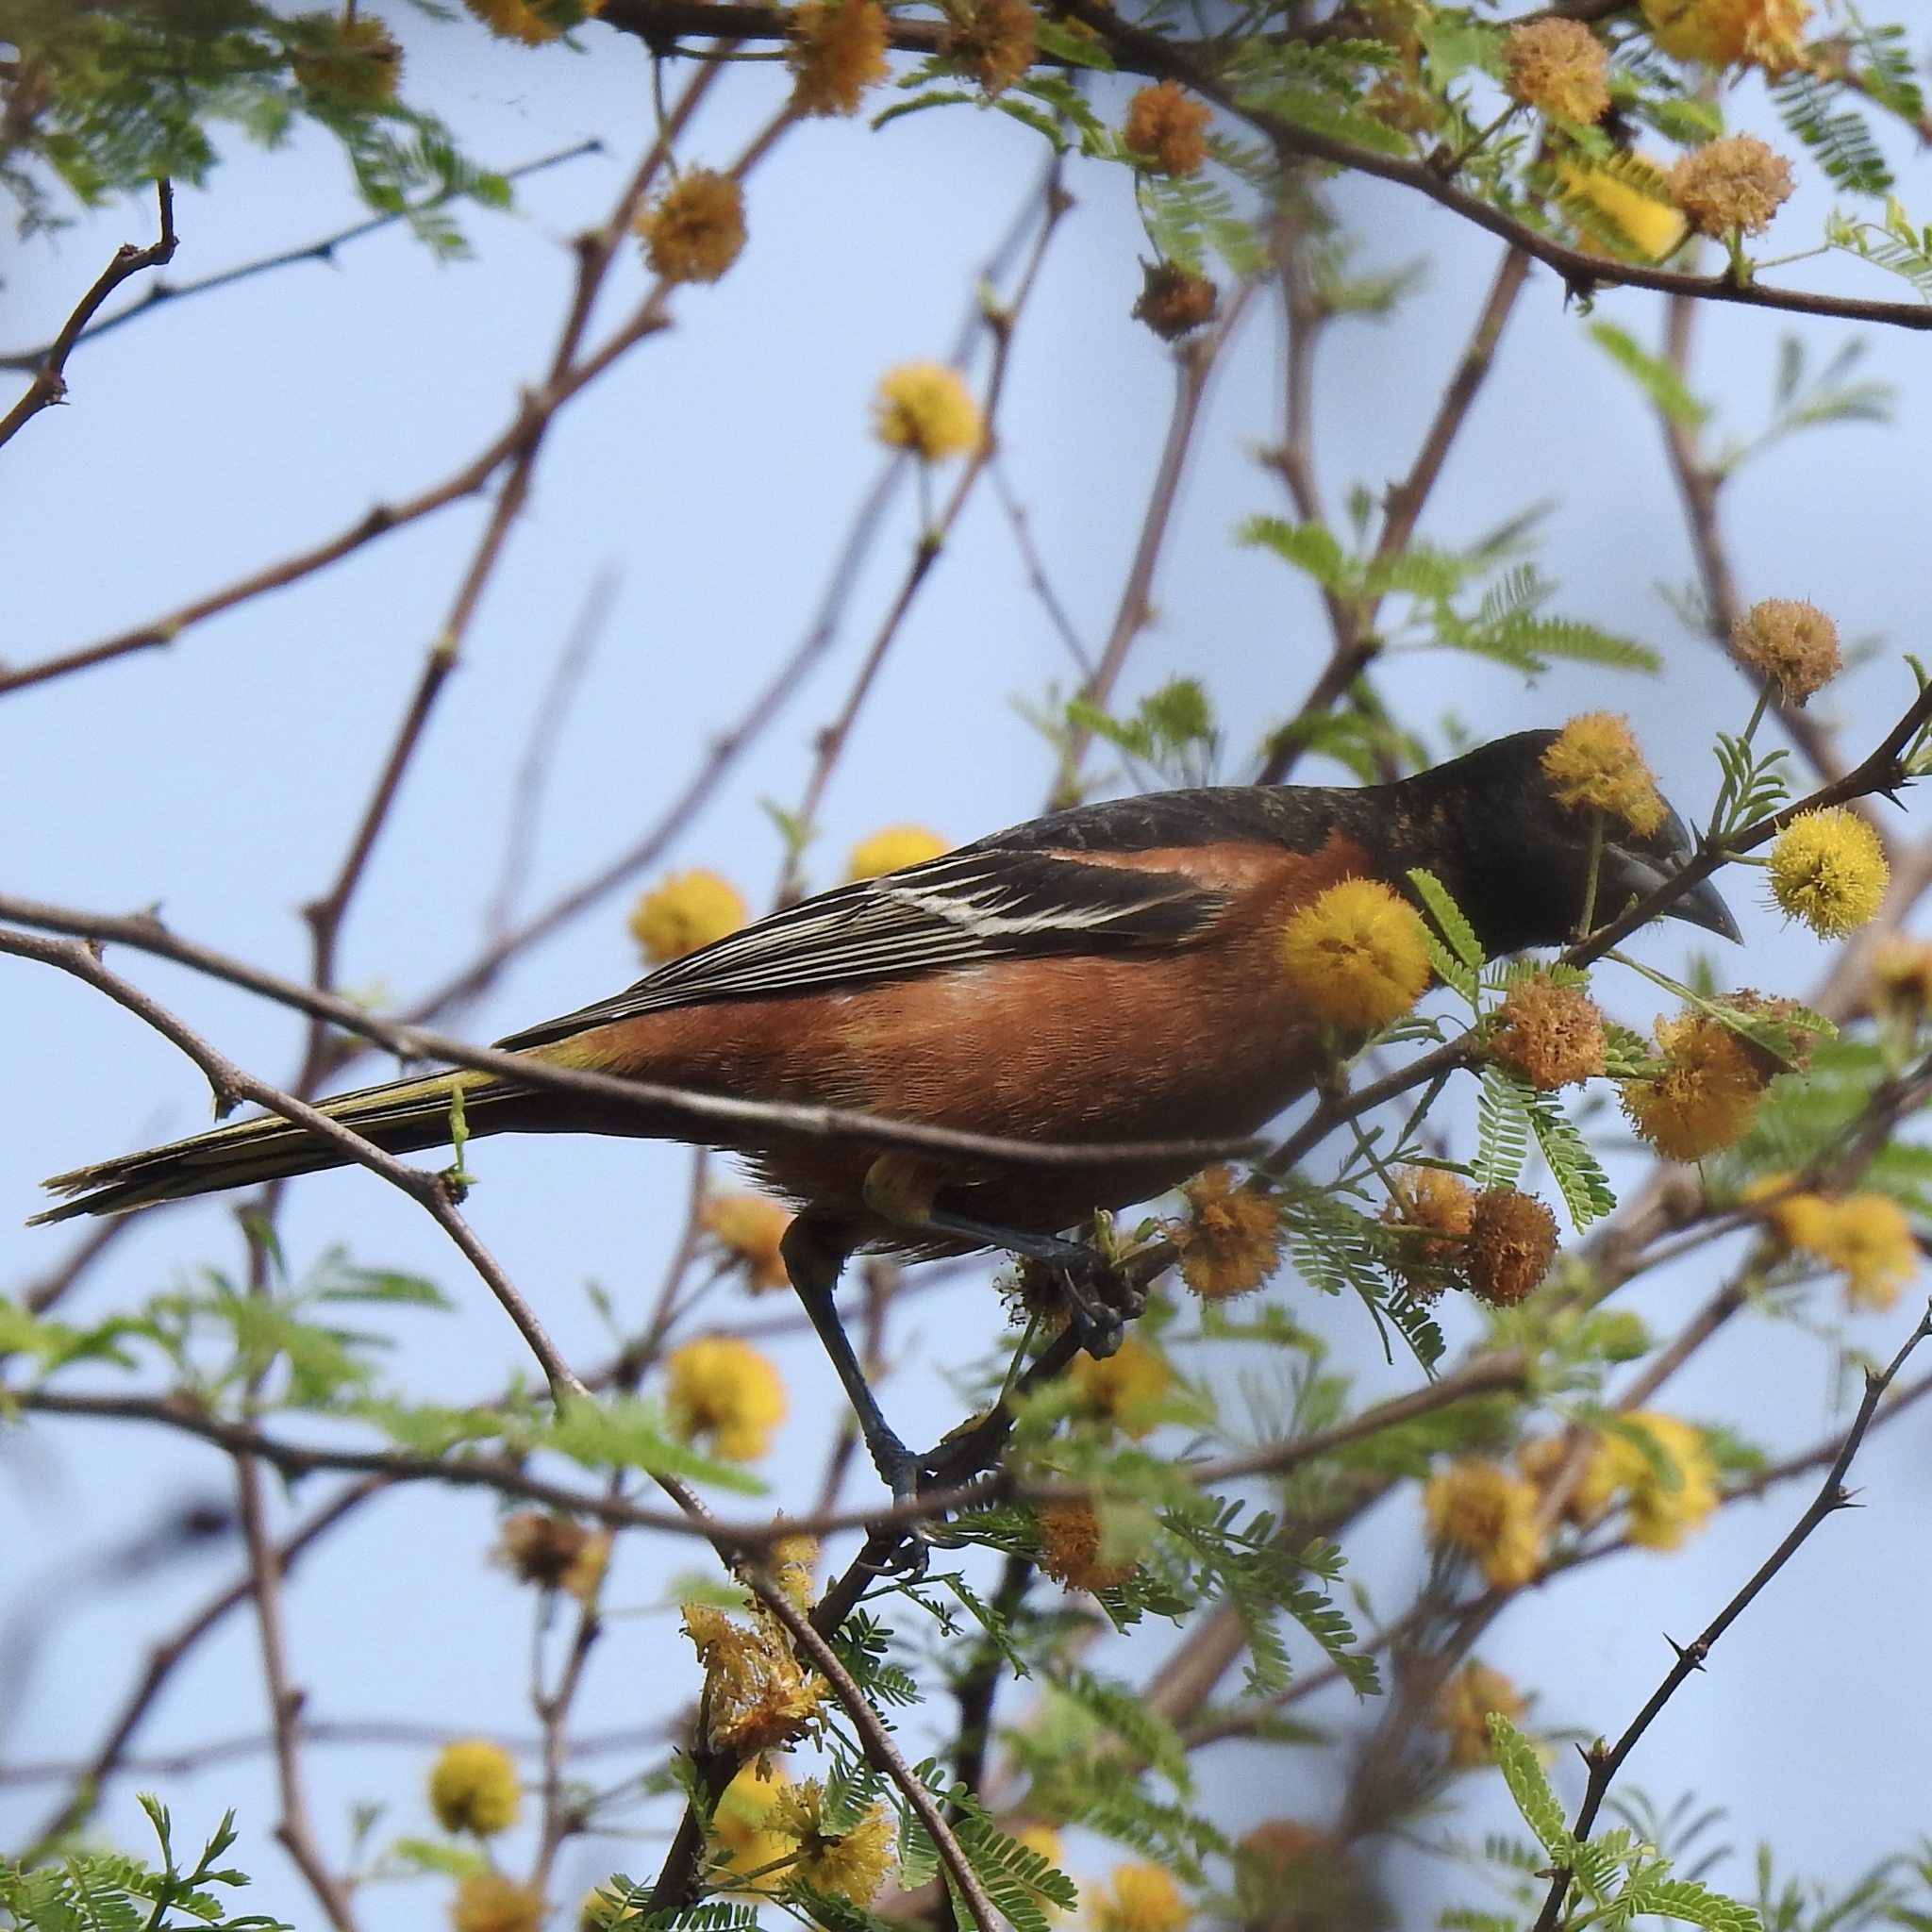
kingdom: Animalia
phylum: Chordata
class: Aves
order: Passeriformes
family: Icteridae
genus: Icterus
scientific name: Icterus spurius
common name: Orchard oriole
